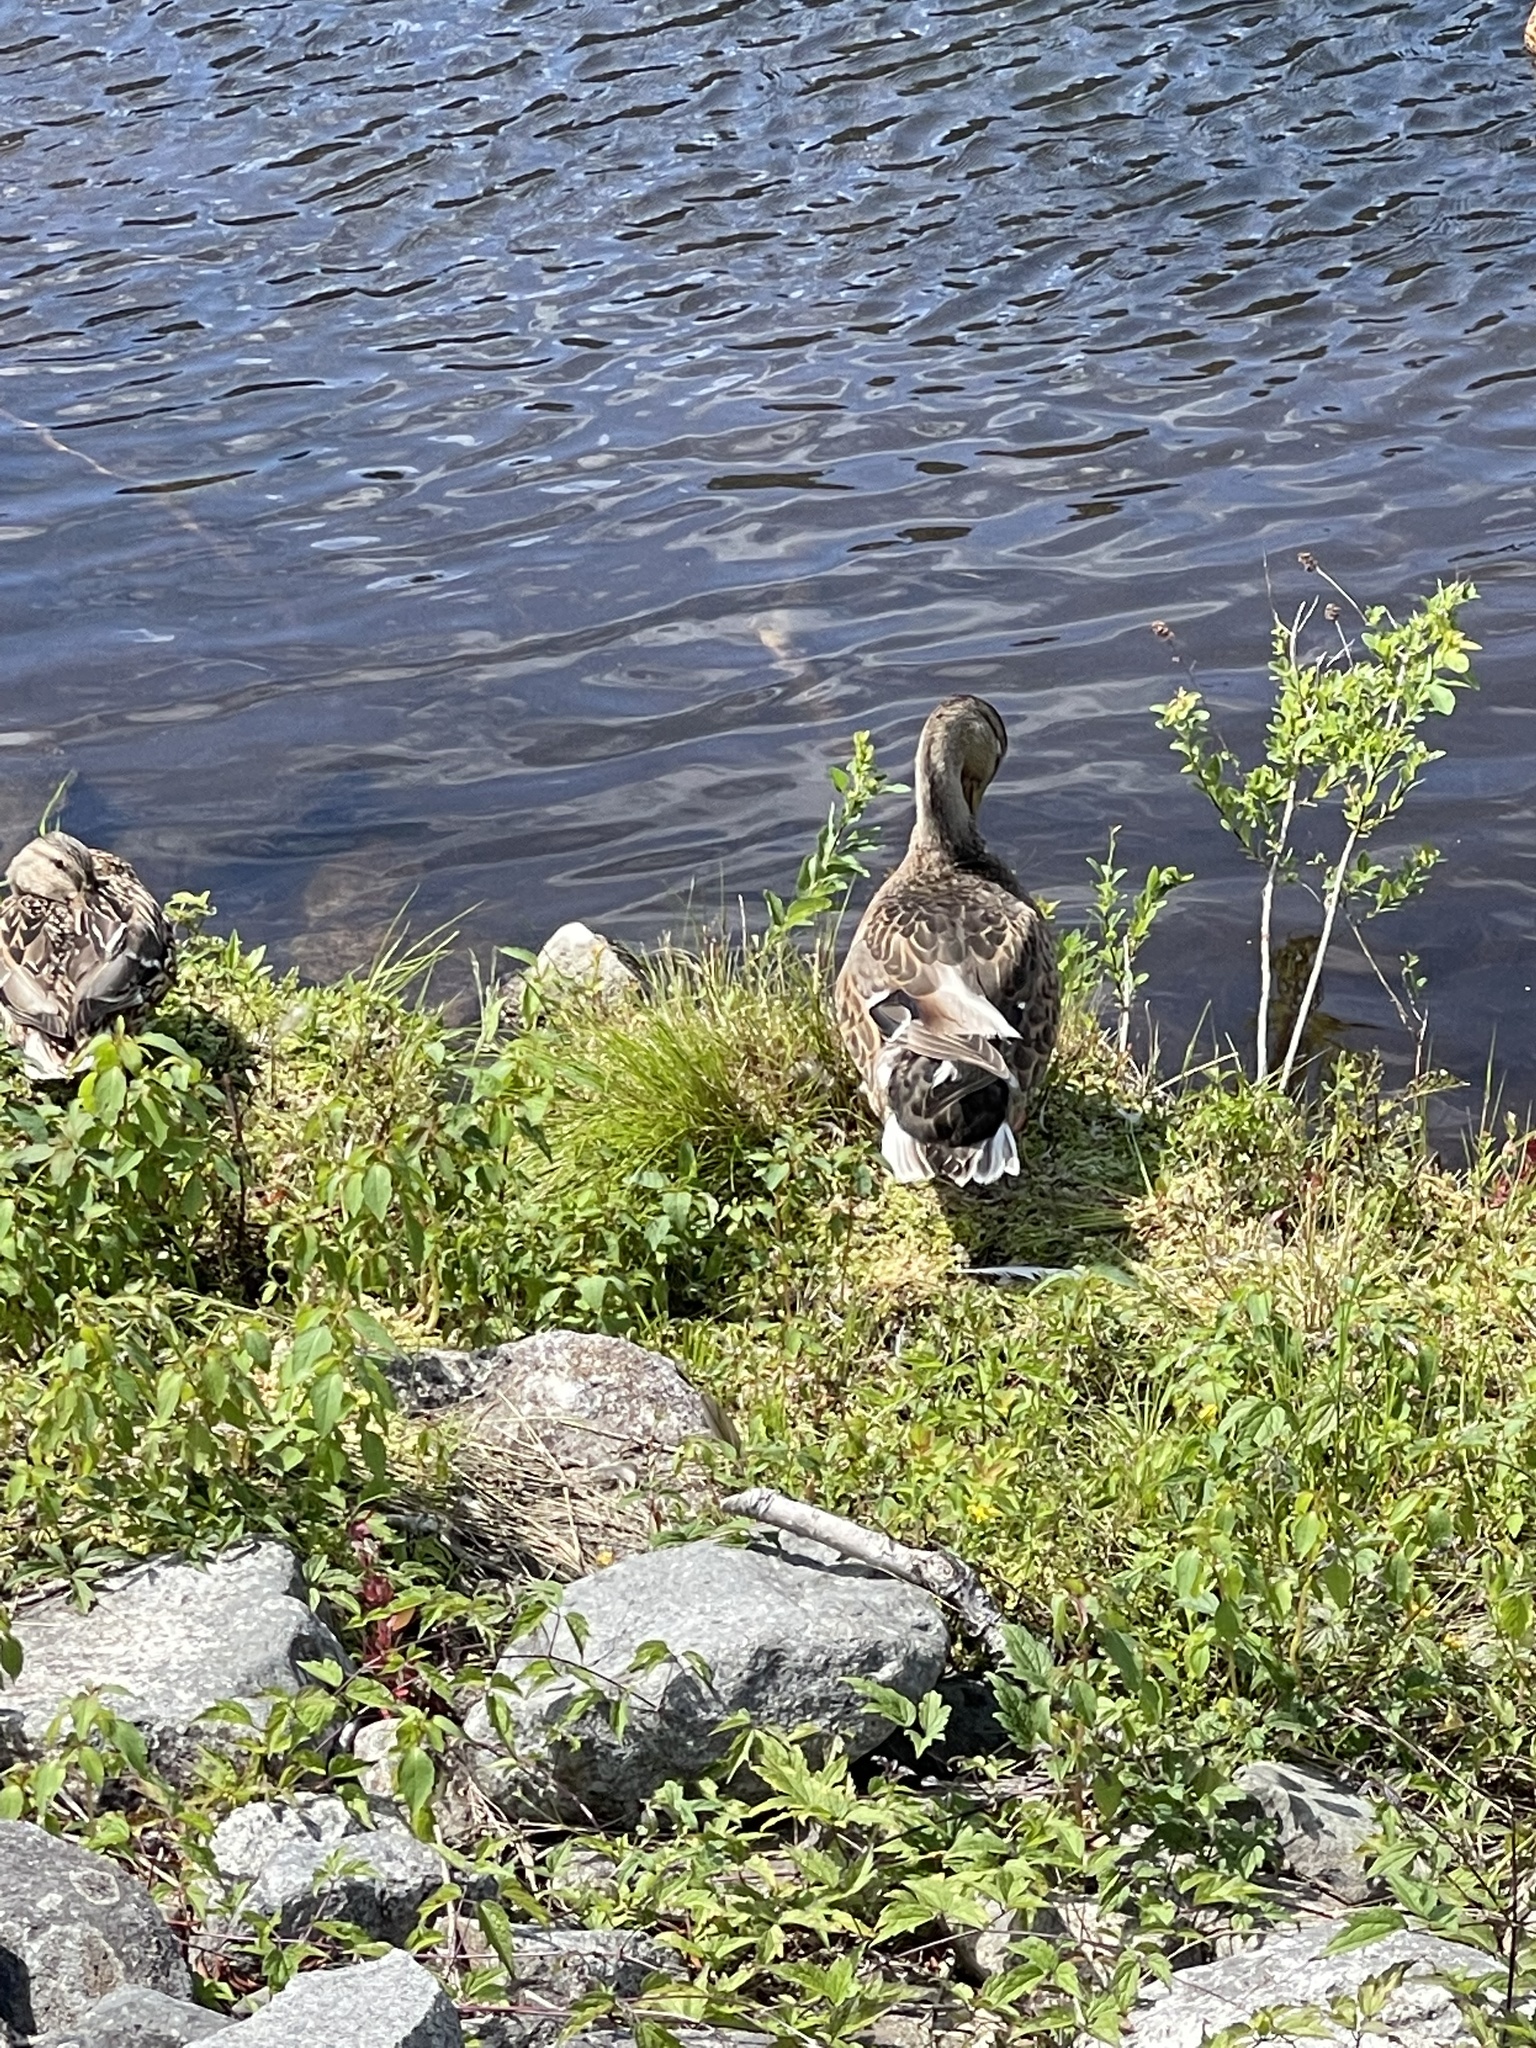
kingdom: Animalia
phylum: Chordata
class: Aves
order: Anseriformes
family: Anatidae
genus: Anas
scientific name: Anas platyrhynchos
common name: Mallard
